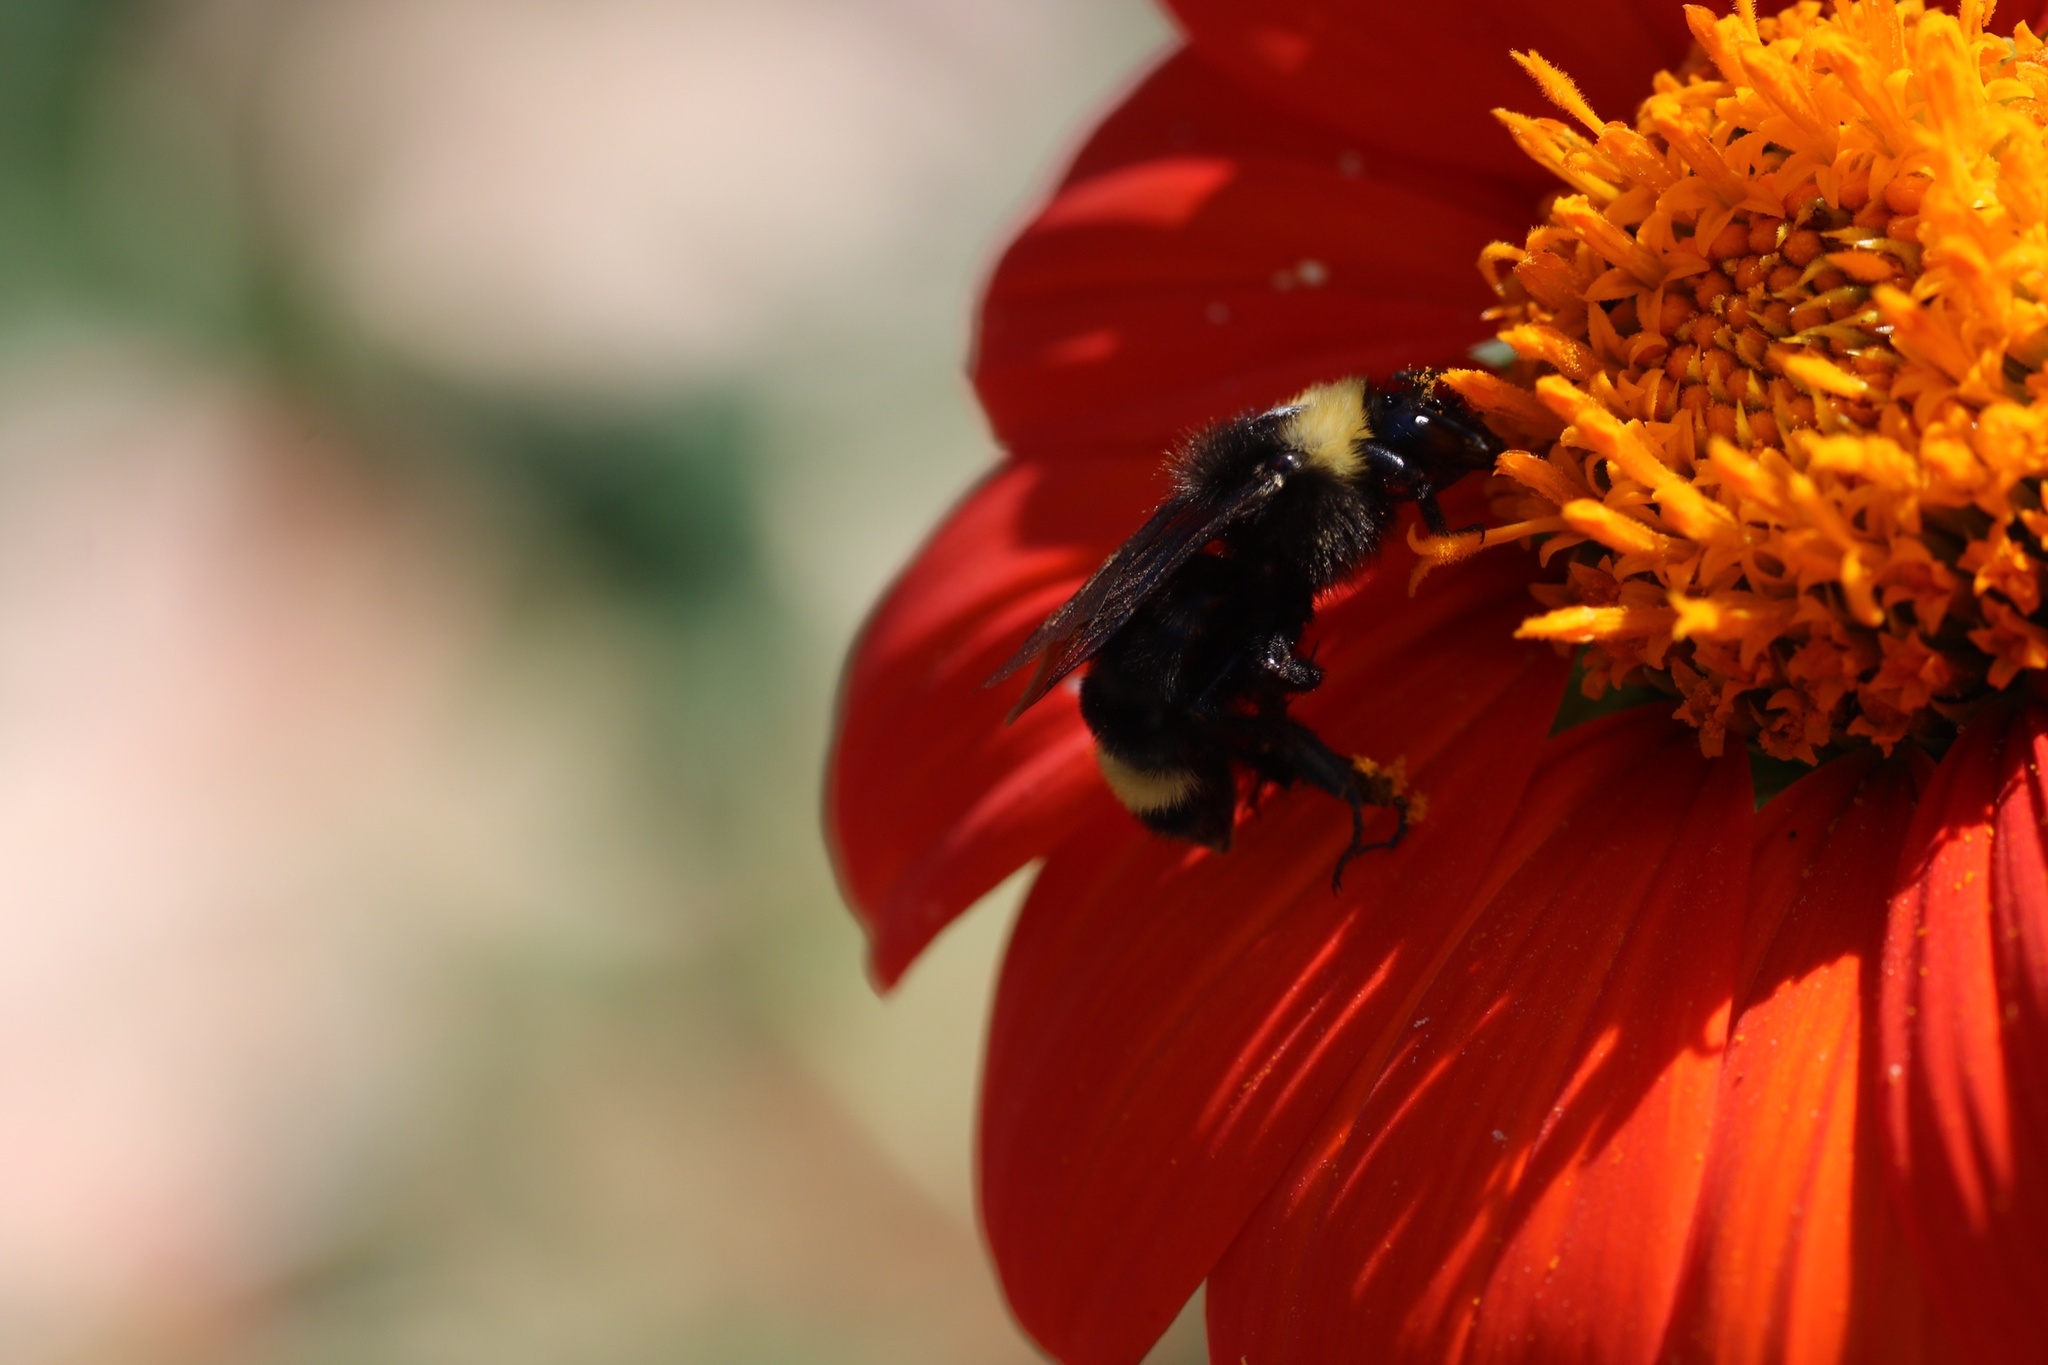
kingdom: Animalia
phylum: Arthropoda
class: Insecta
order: Hymenoptera
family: Apidae
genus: Bombus
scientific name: Bombus californicus
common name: California bumble bee
